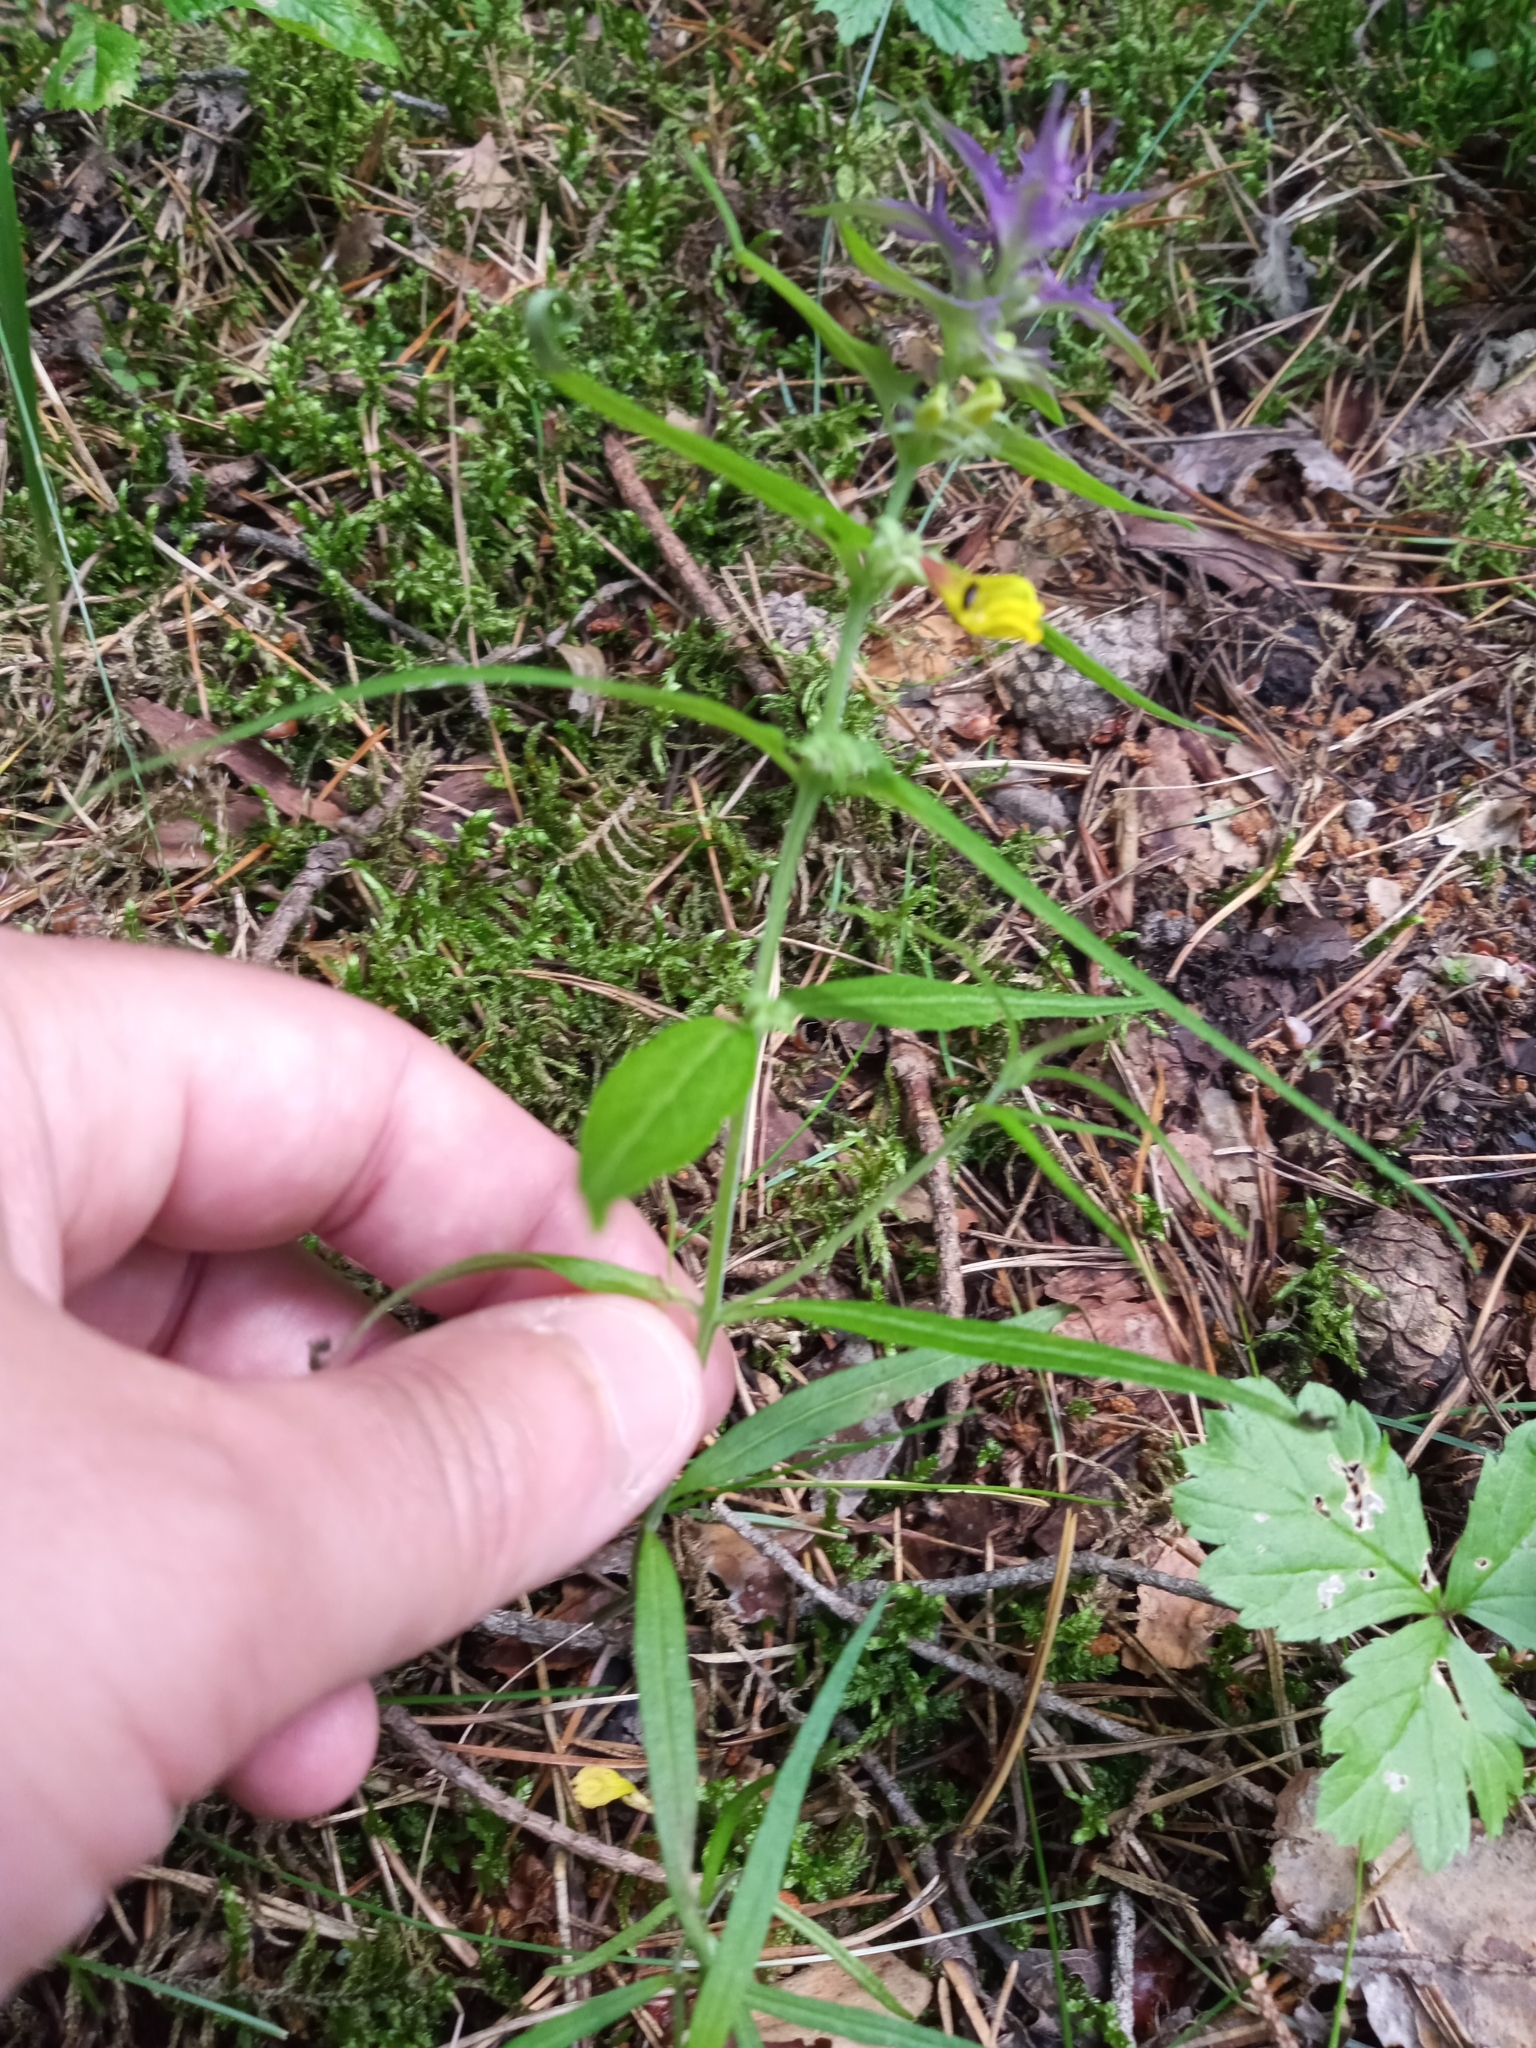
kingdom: Plantae
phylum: Tracheophyta
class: Magnoliopsida
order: Lamiales
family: Orobanchaceae
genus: Melampyrum
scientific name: Melampyrum nemorosum
